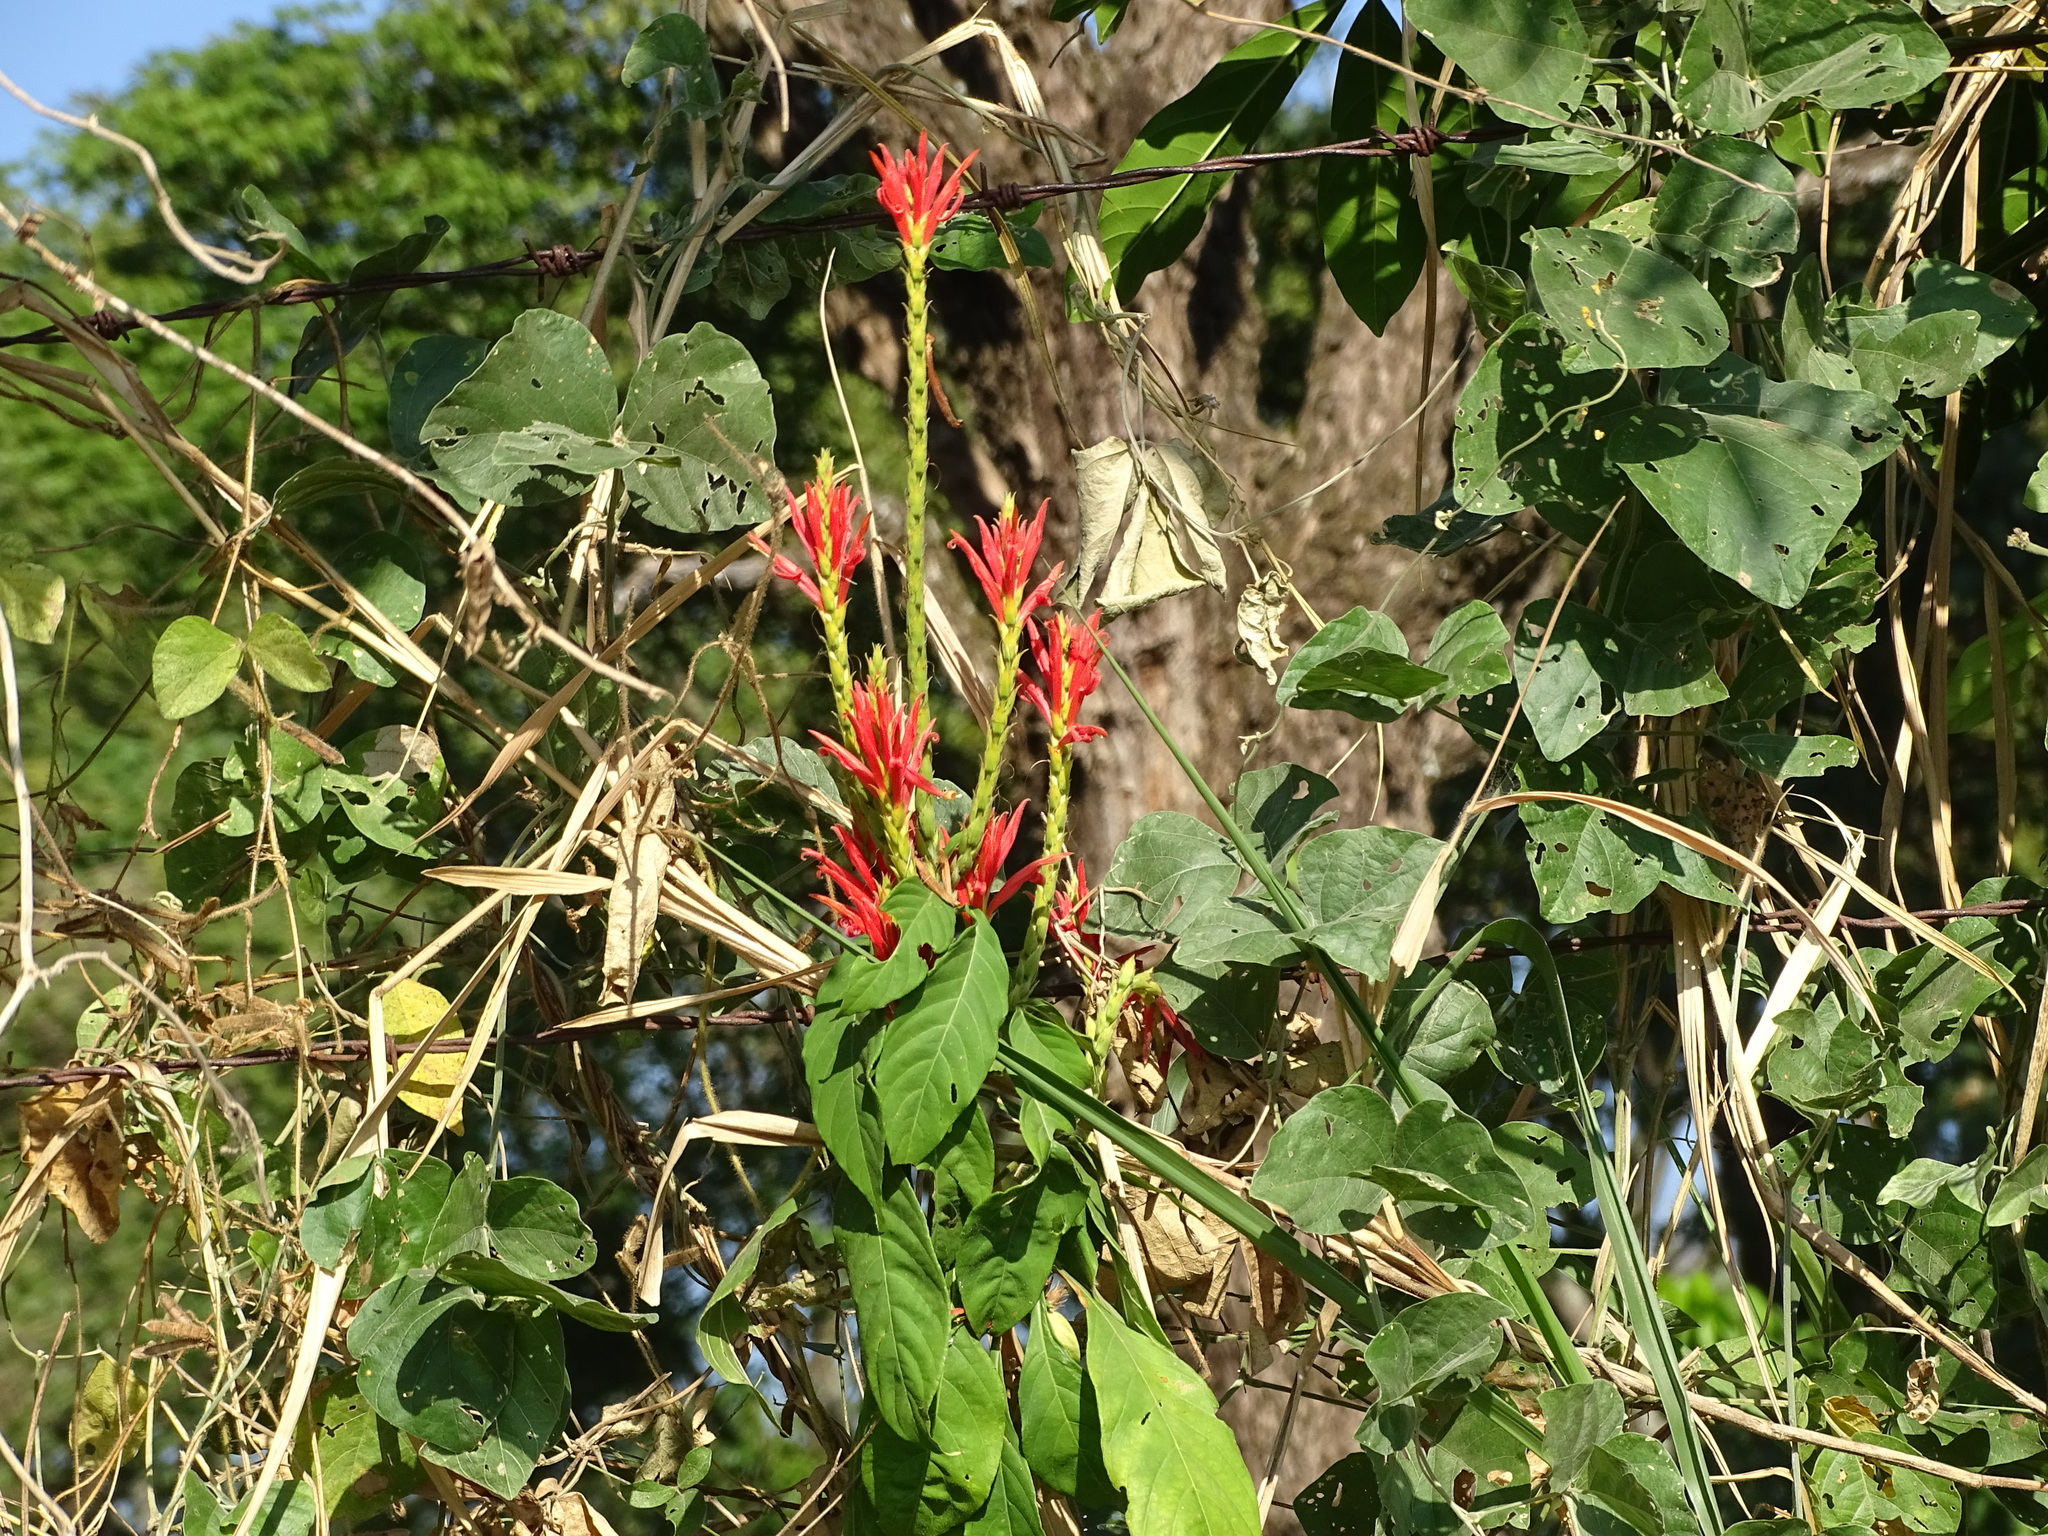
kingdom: Plantae
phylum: Tracheophyta
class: Magnoliopsida
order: Lamiales
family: Acanthaceae
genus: Aphelandra
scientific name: Aphelandra scabra
